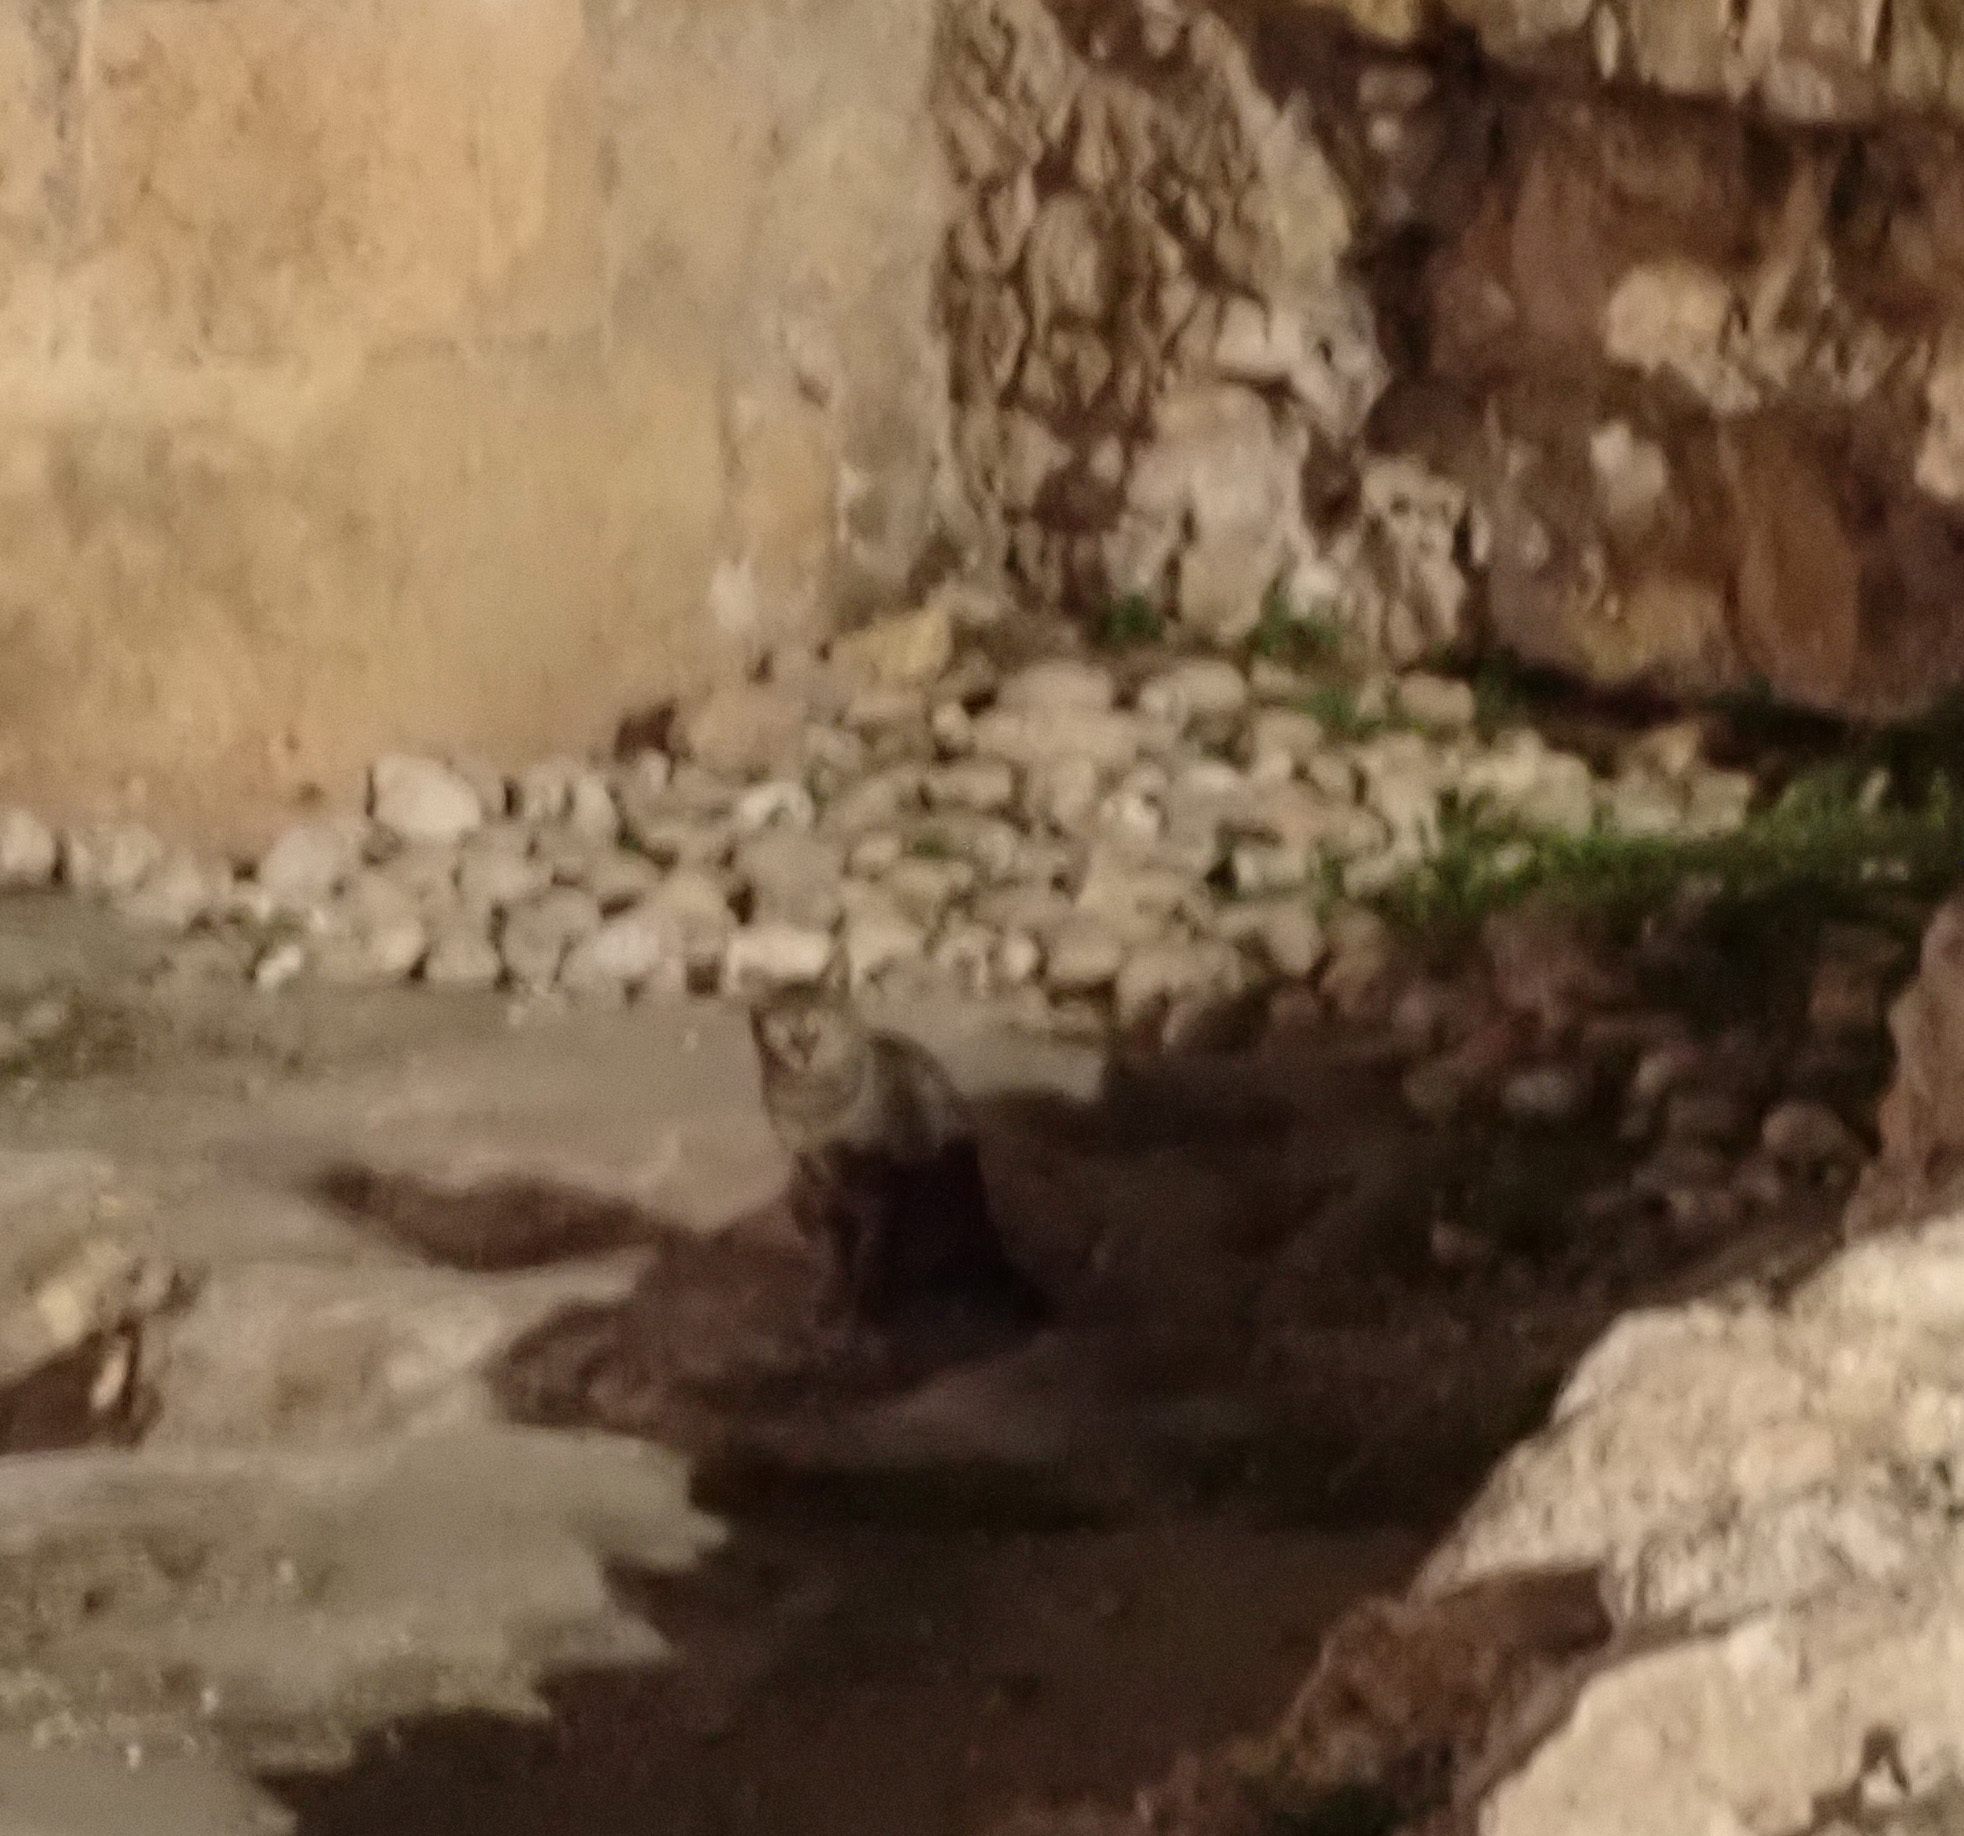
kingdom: Animalia
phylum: Chordata
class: Mammalia
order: Carnivora
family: Felidae
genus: Felis
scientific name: Felis catus
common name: Domestic cat
